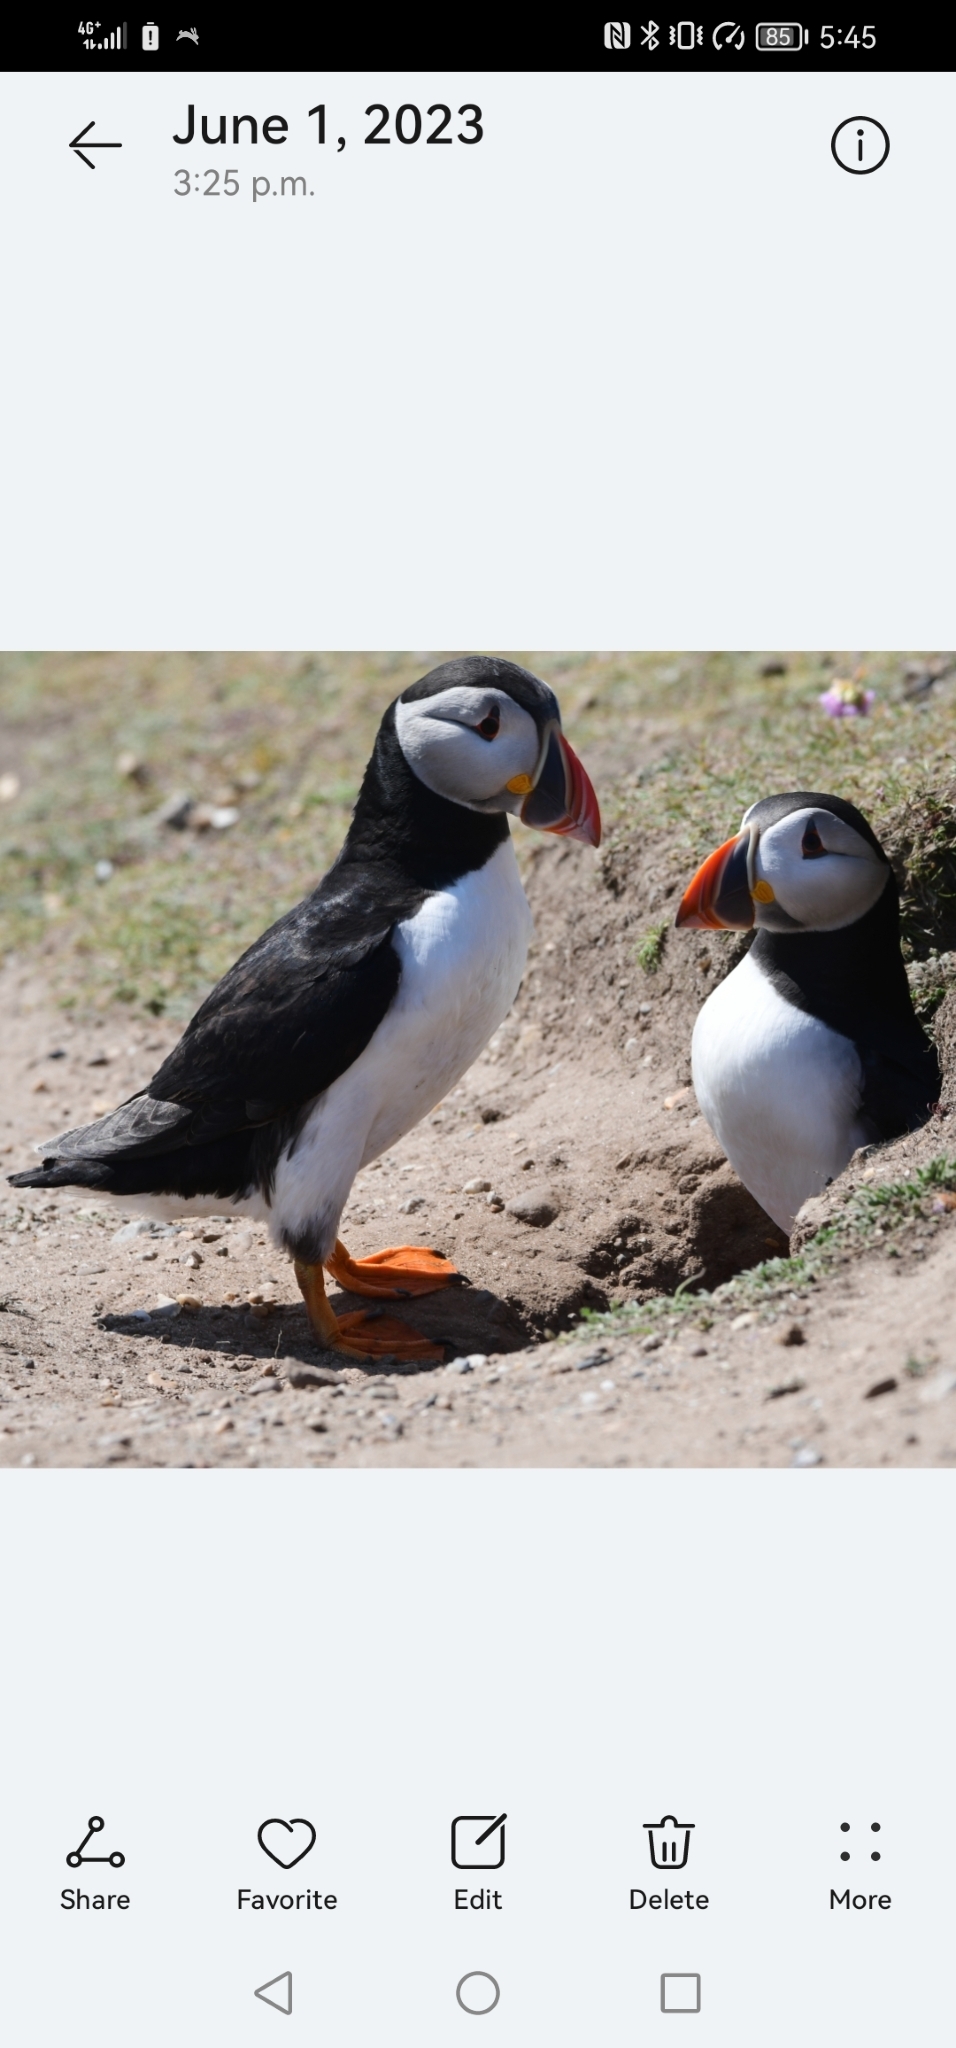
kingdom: Animalia
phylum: Chordata
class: Aves
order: Charadriiformes
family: Alcidae
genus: Fratercula
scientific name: Fratercula arctica
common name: Atlantic puffin
